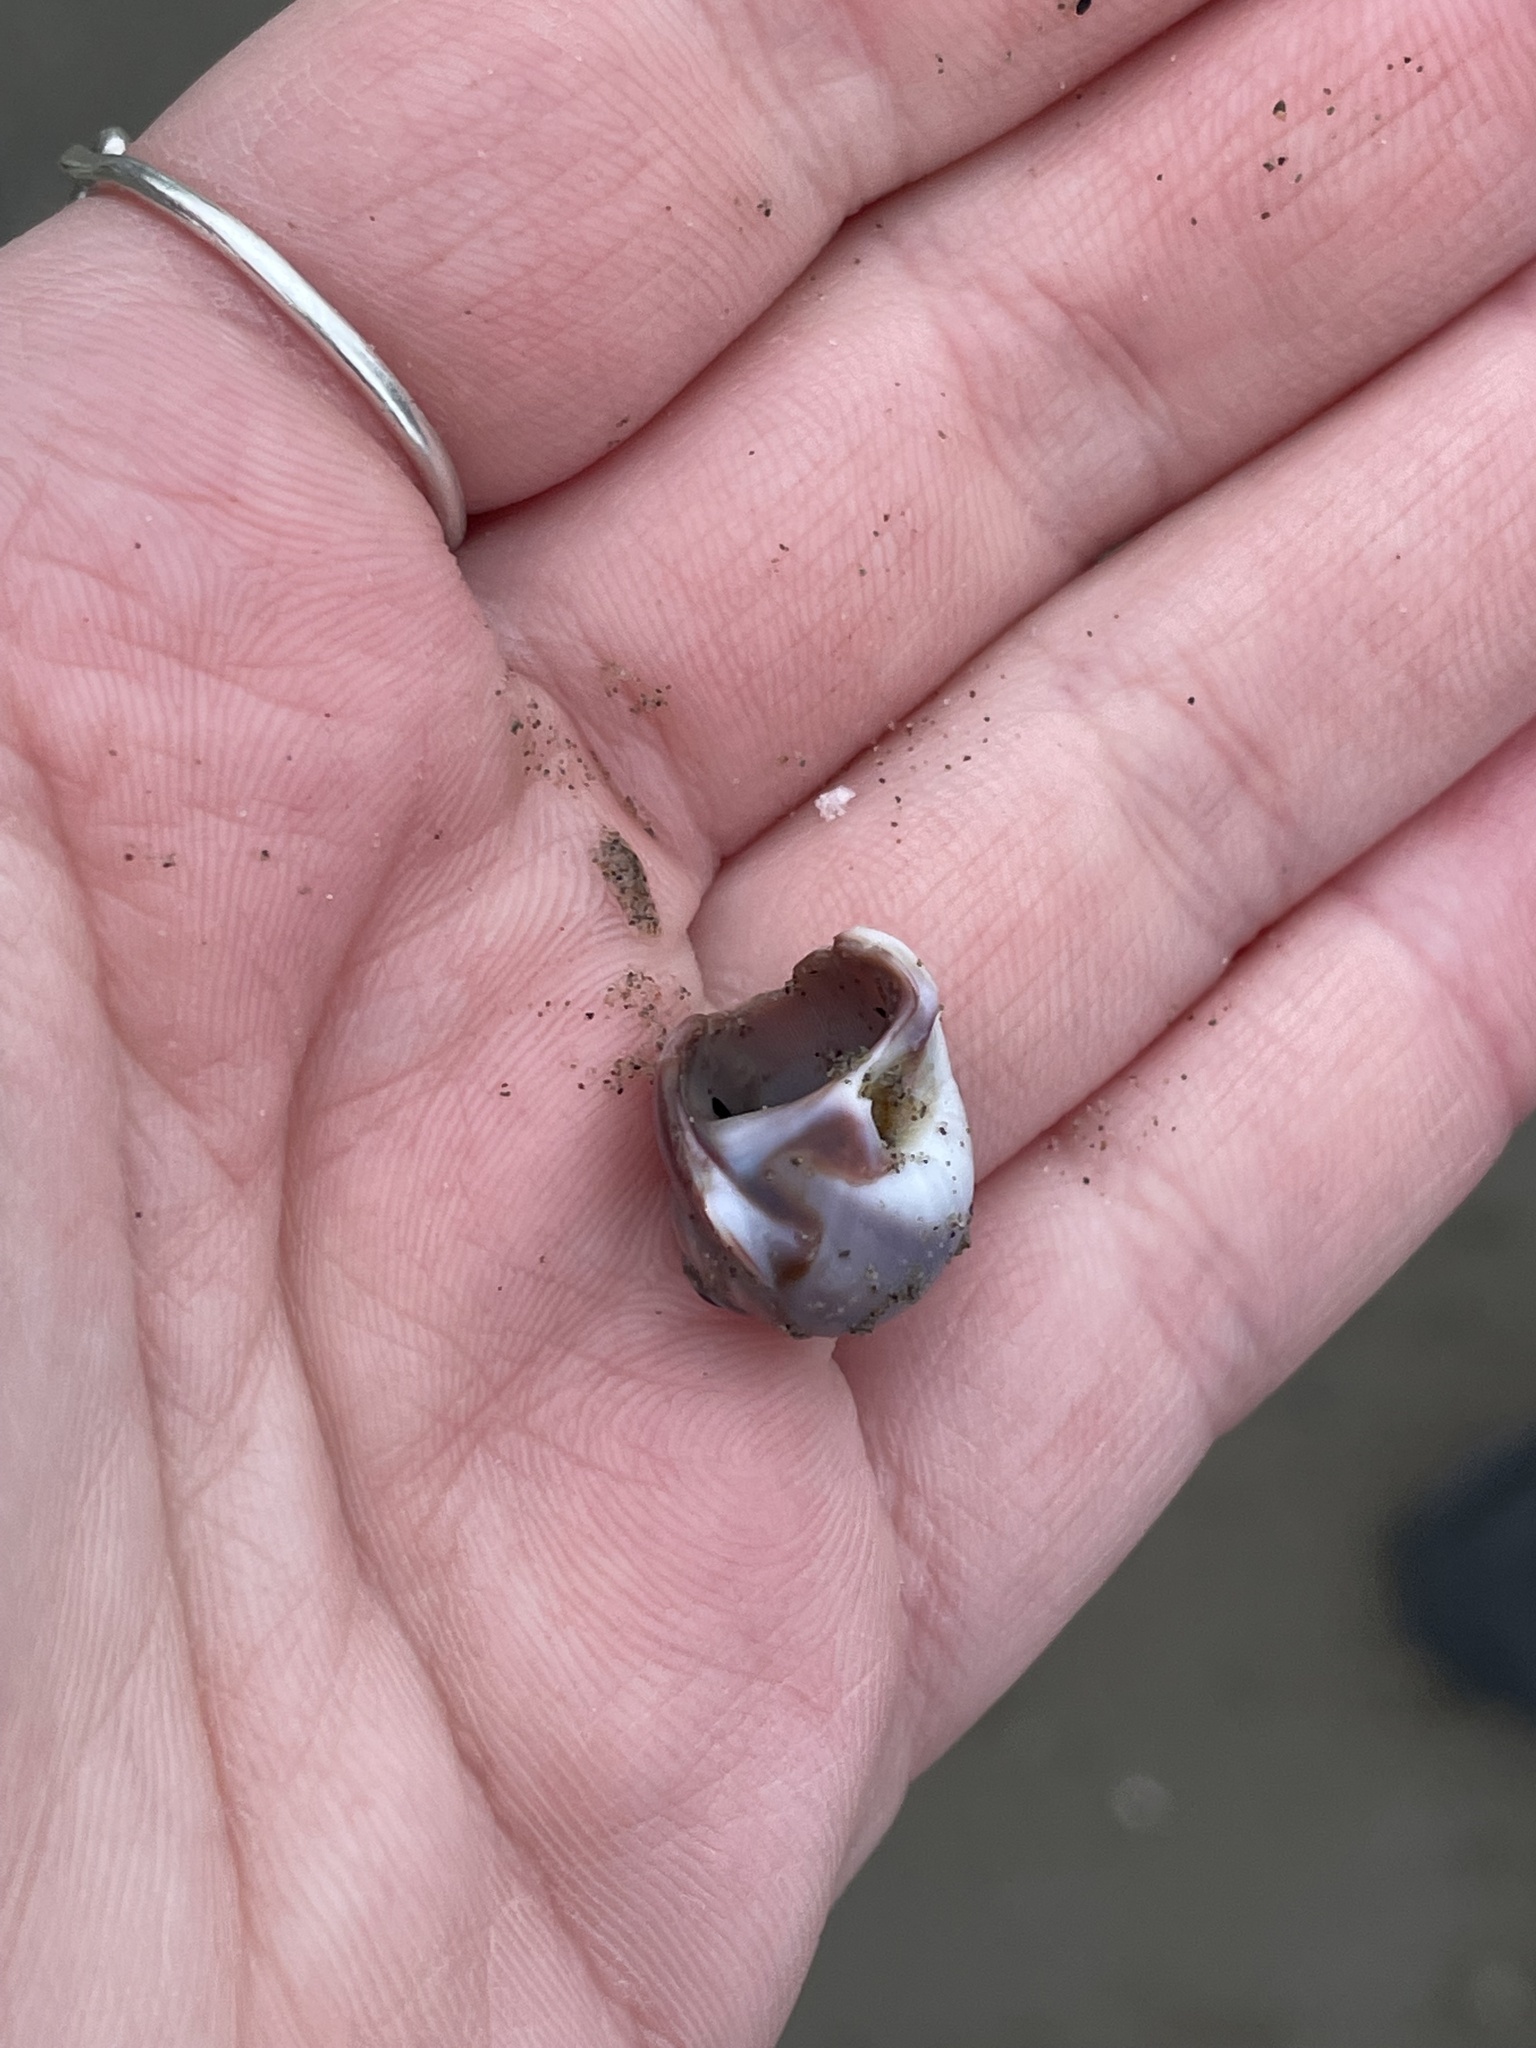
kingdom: Animalia
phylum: Mollusca
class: Gastropoda
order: Littorinimorpha
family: Naticidae
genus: Euspira
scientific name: Euspira heros
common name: Common northern moonsnail
